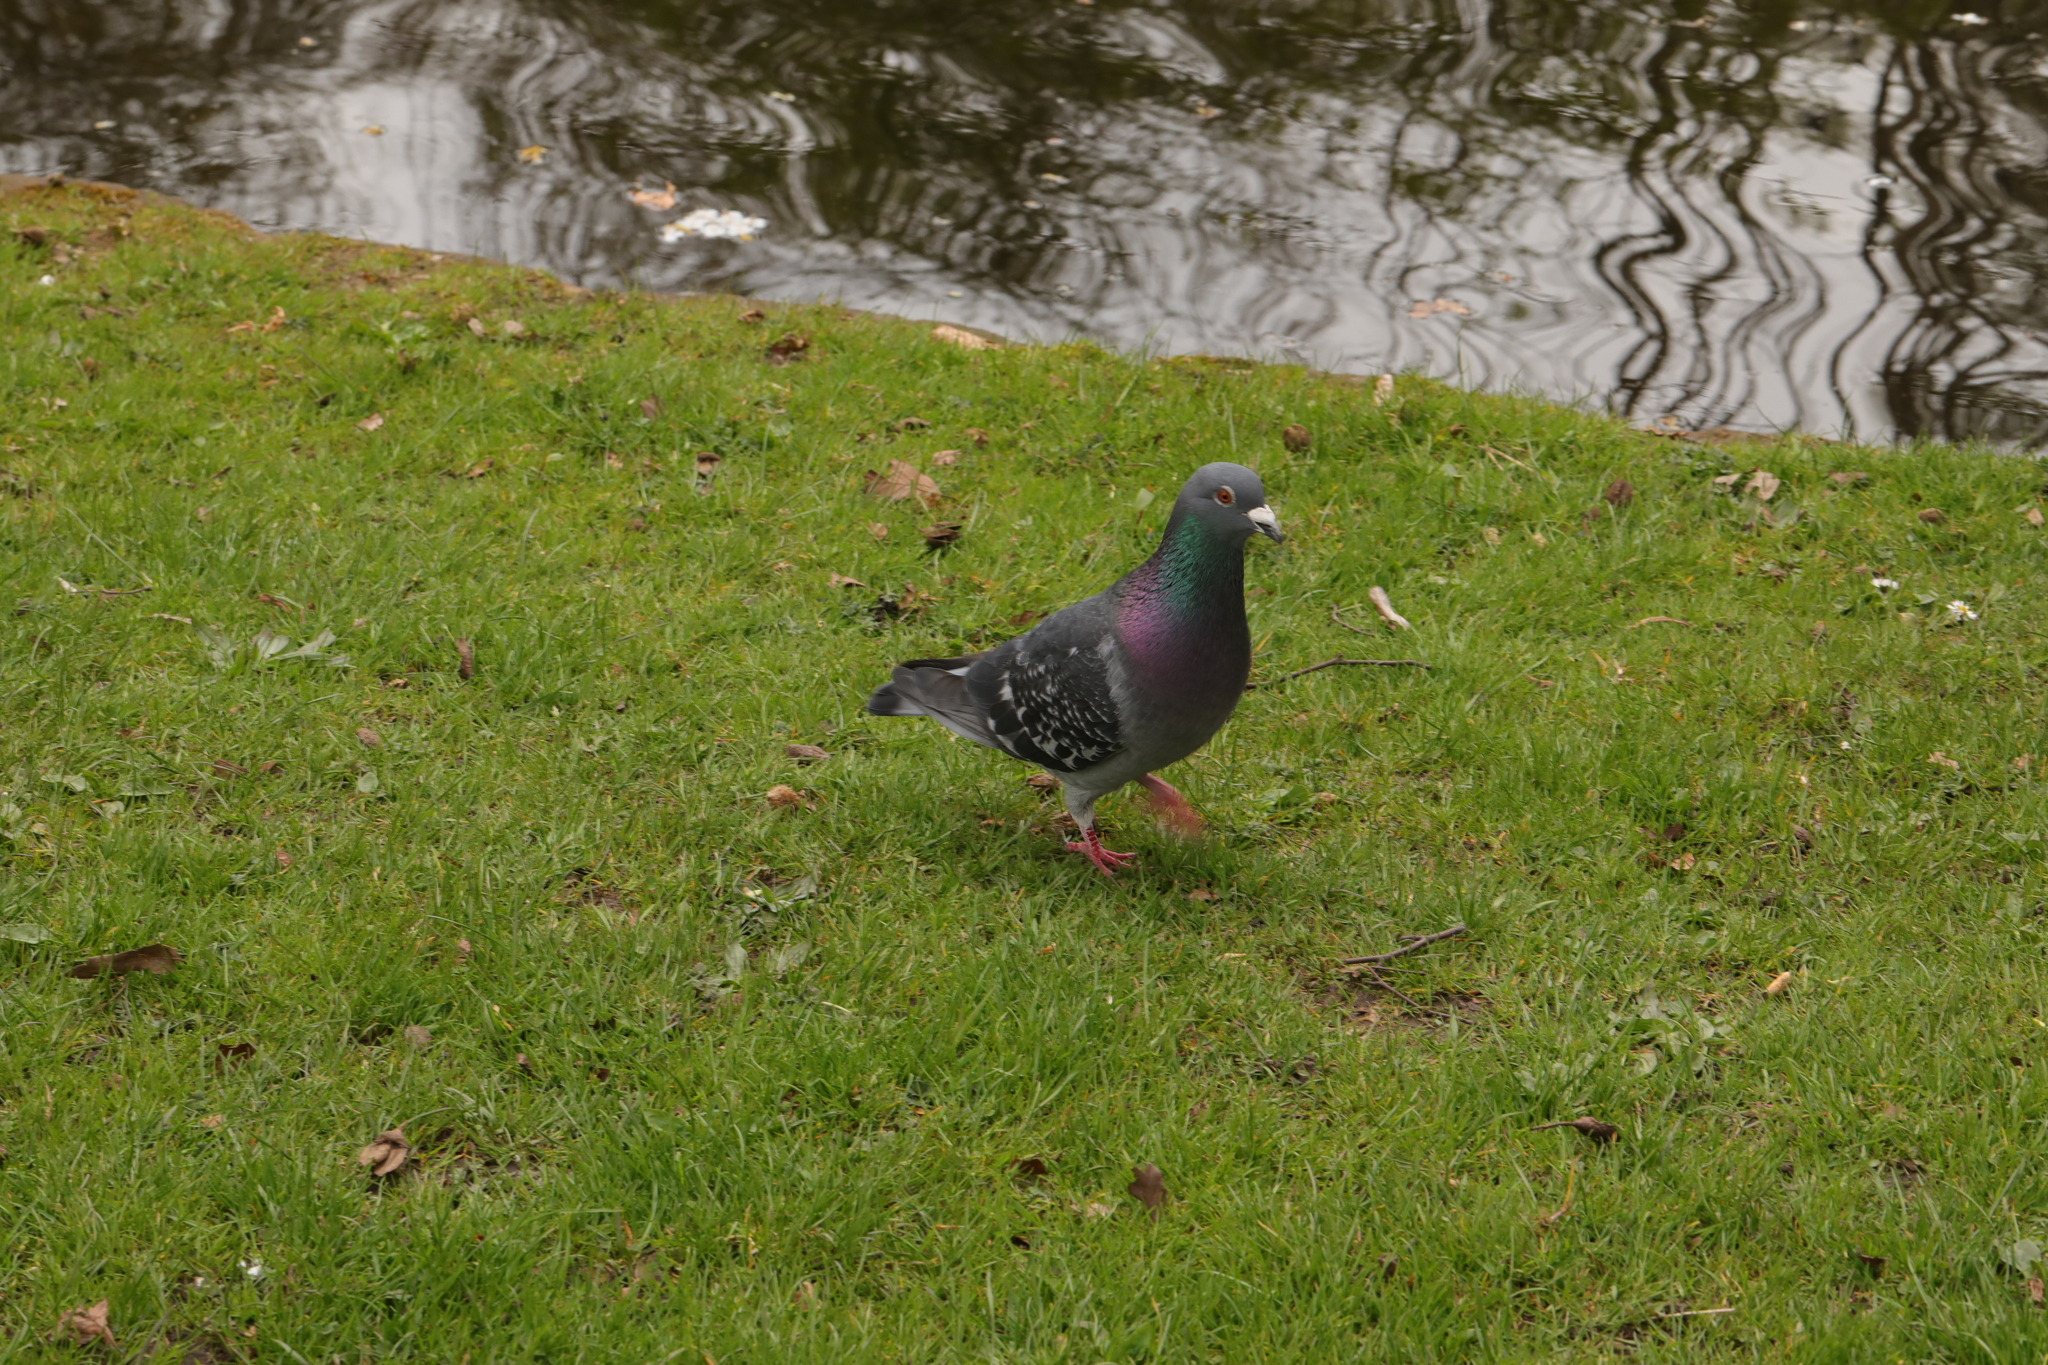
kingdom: Animalia
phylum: Chordata
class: Aves
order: Columbiformes
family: Columbidae
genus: Columba
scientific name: Columba livia
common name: Rock pigeon
